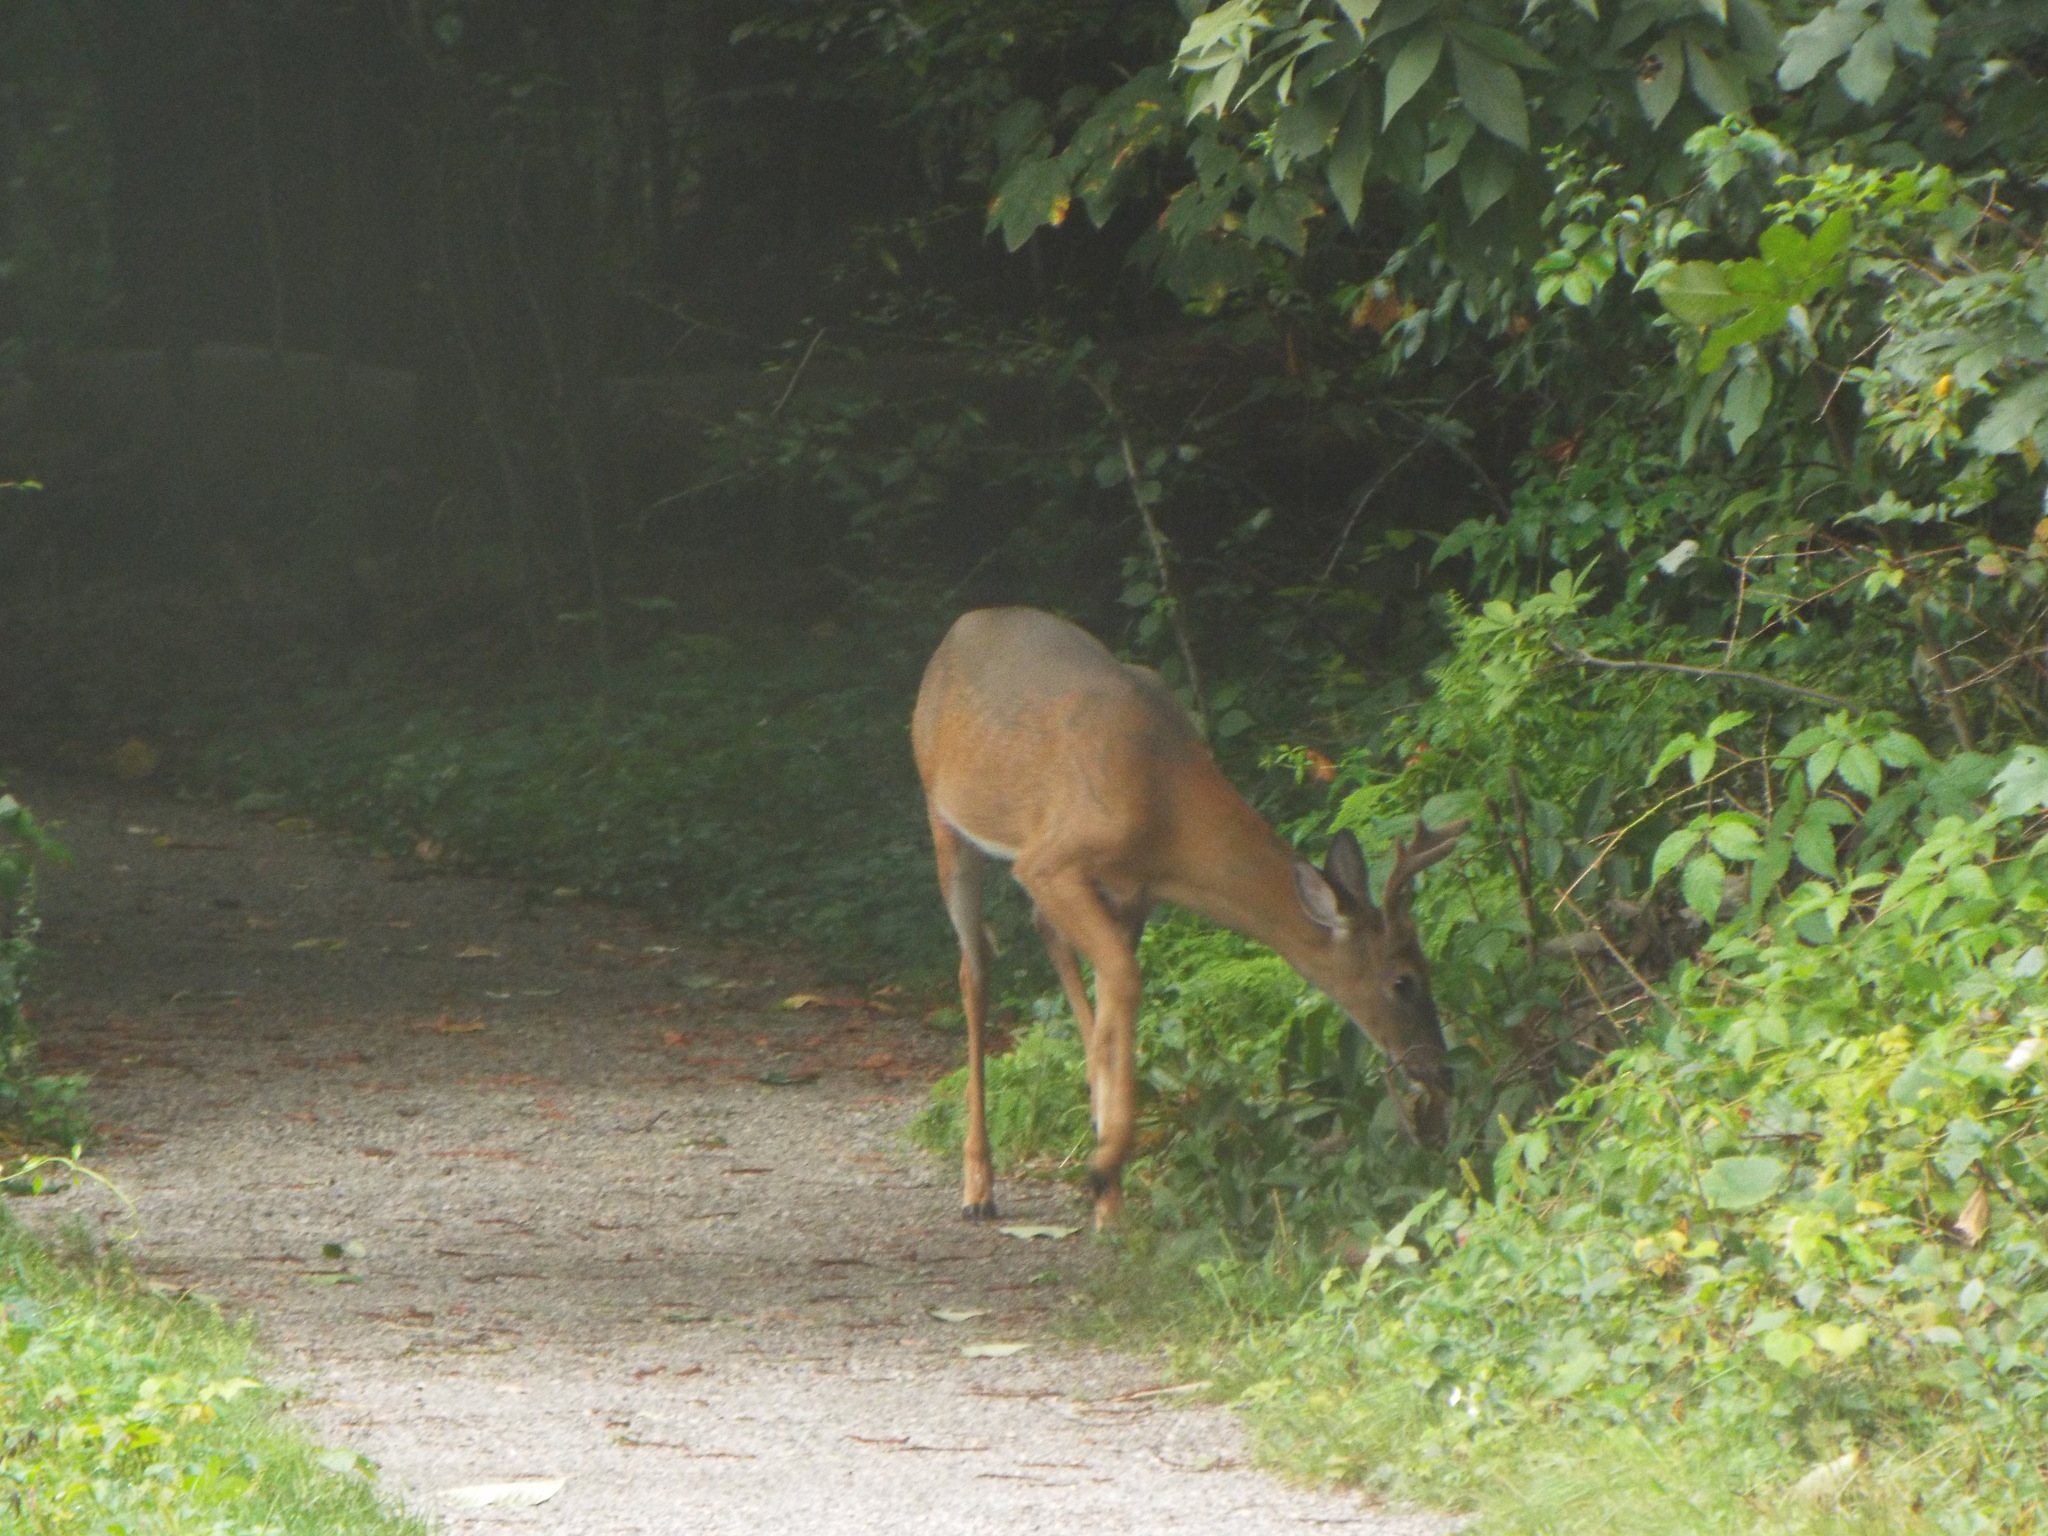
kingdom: Animalia
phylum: Chordata
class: Mammalia
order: Artiodactyla
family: Cervidae
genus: Odocoileus
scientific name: Odocoileus virginianus
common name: White-tailed deer
